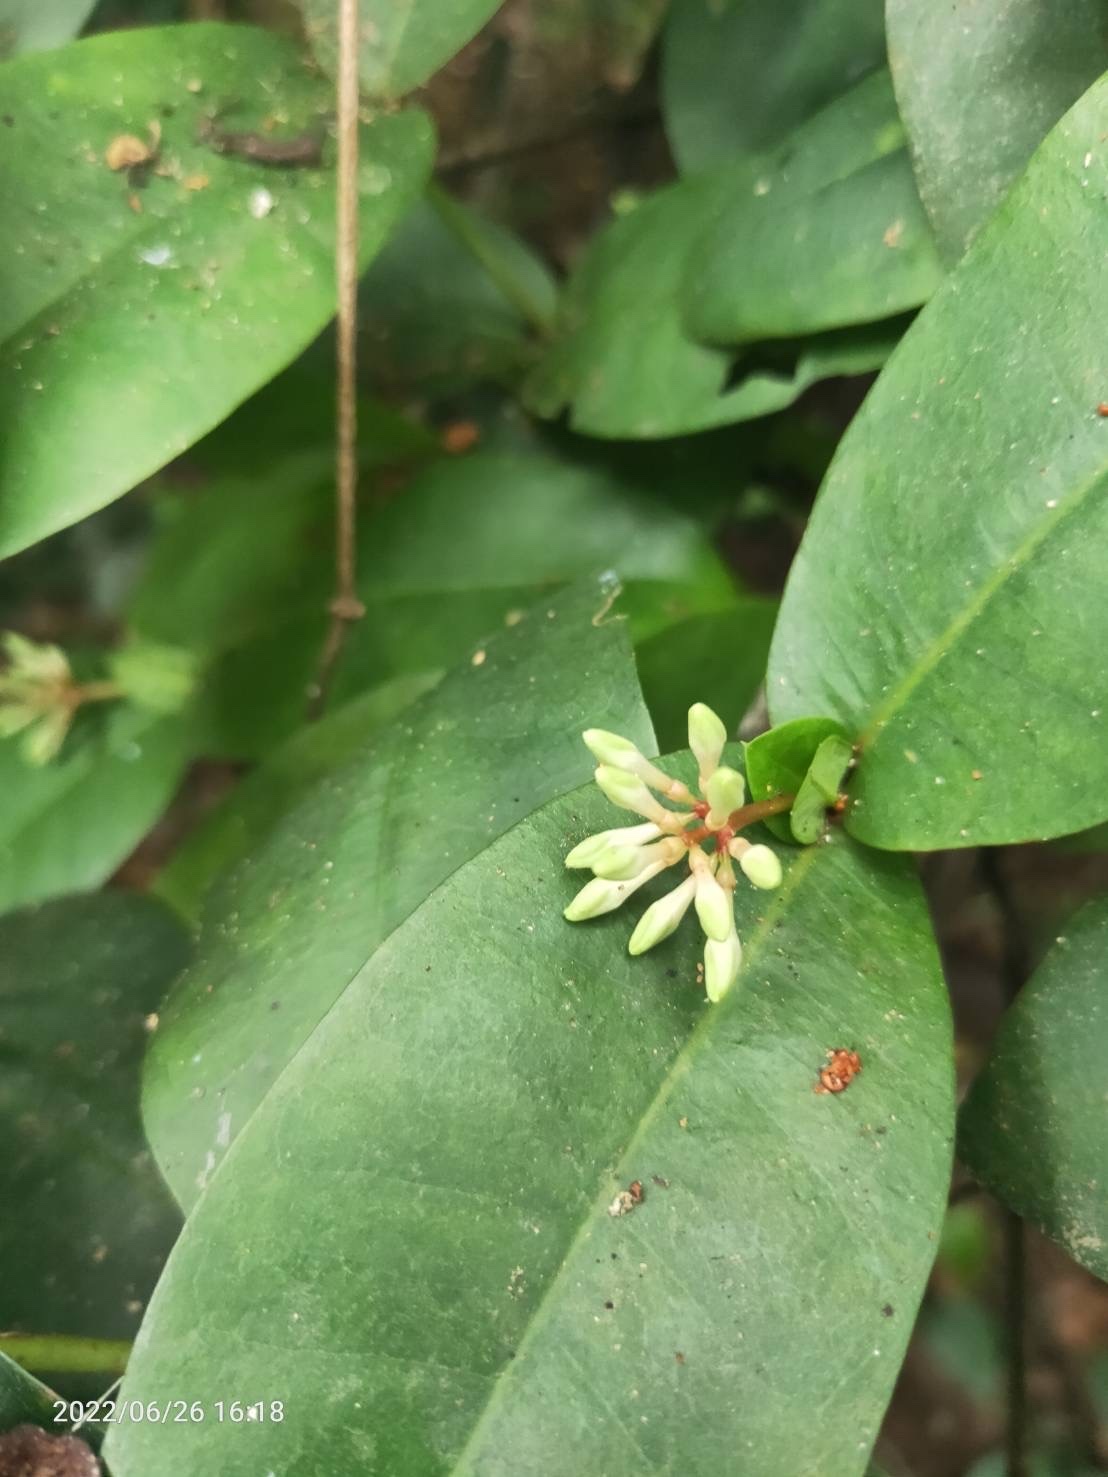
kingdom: Plantae
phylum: Tracheophyta
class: Magnoliopsida
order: Gentianales
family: Rubiaceae
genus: Ixora
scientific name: Ixora philippinensis
